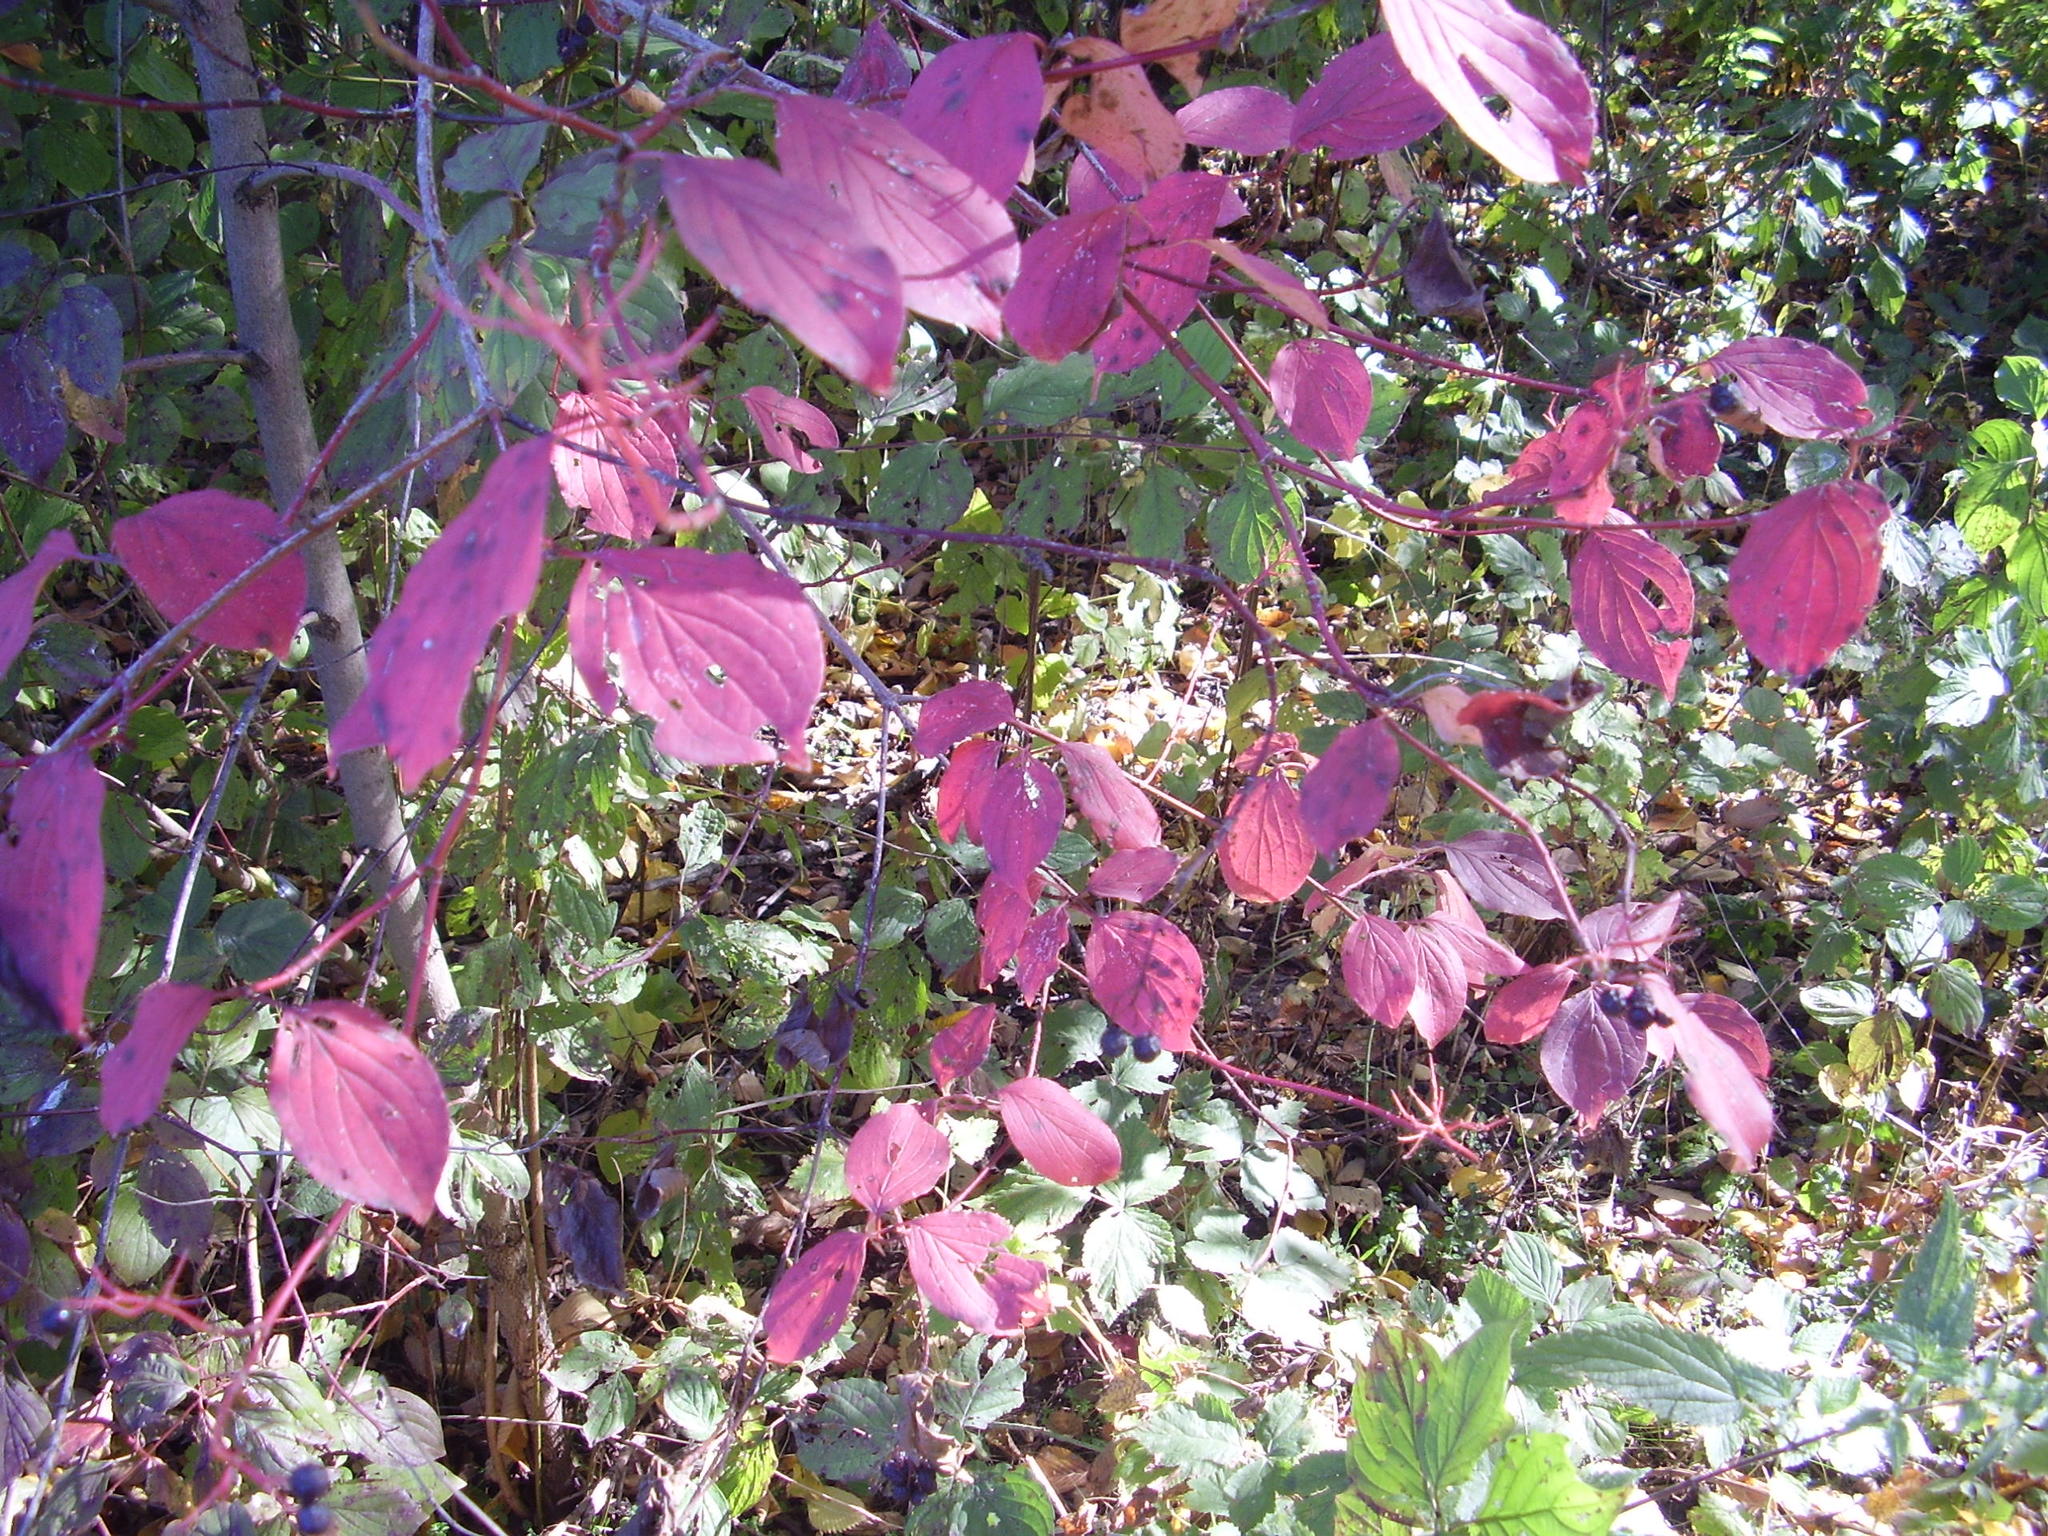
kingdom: Plantae
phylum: Tracheophyta
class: Magnoliopsida
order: Cornales
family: Cornaceae
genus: Cornus
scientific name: Cornus sanguinea
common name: Dogwood
